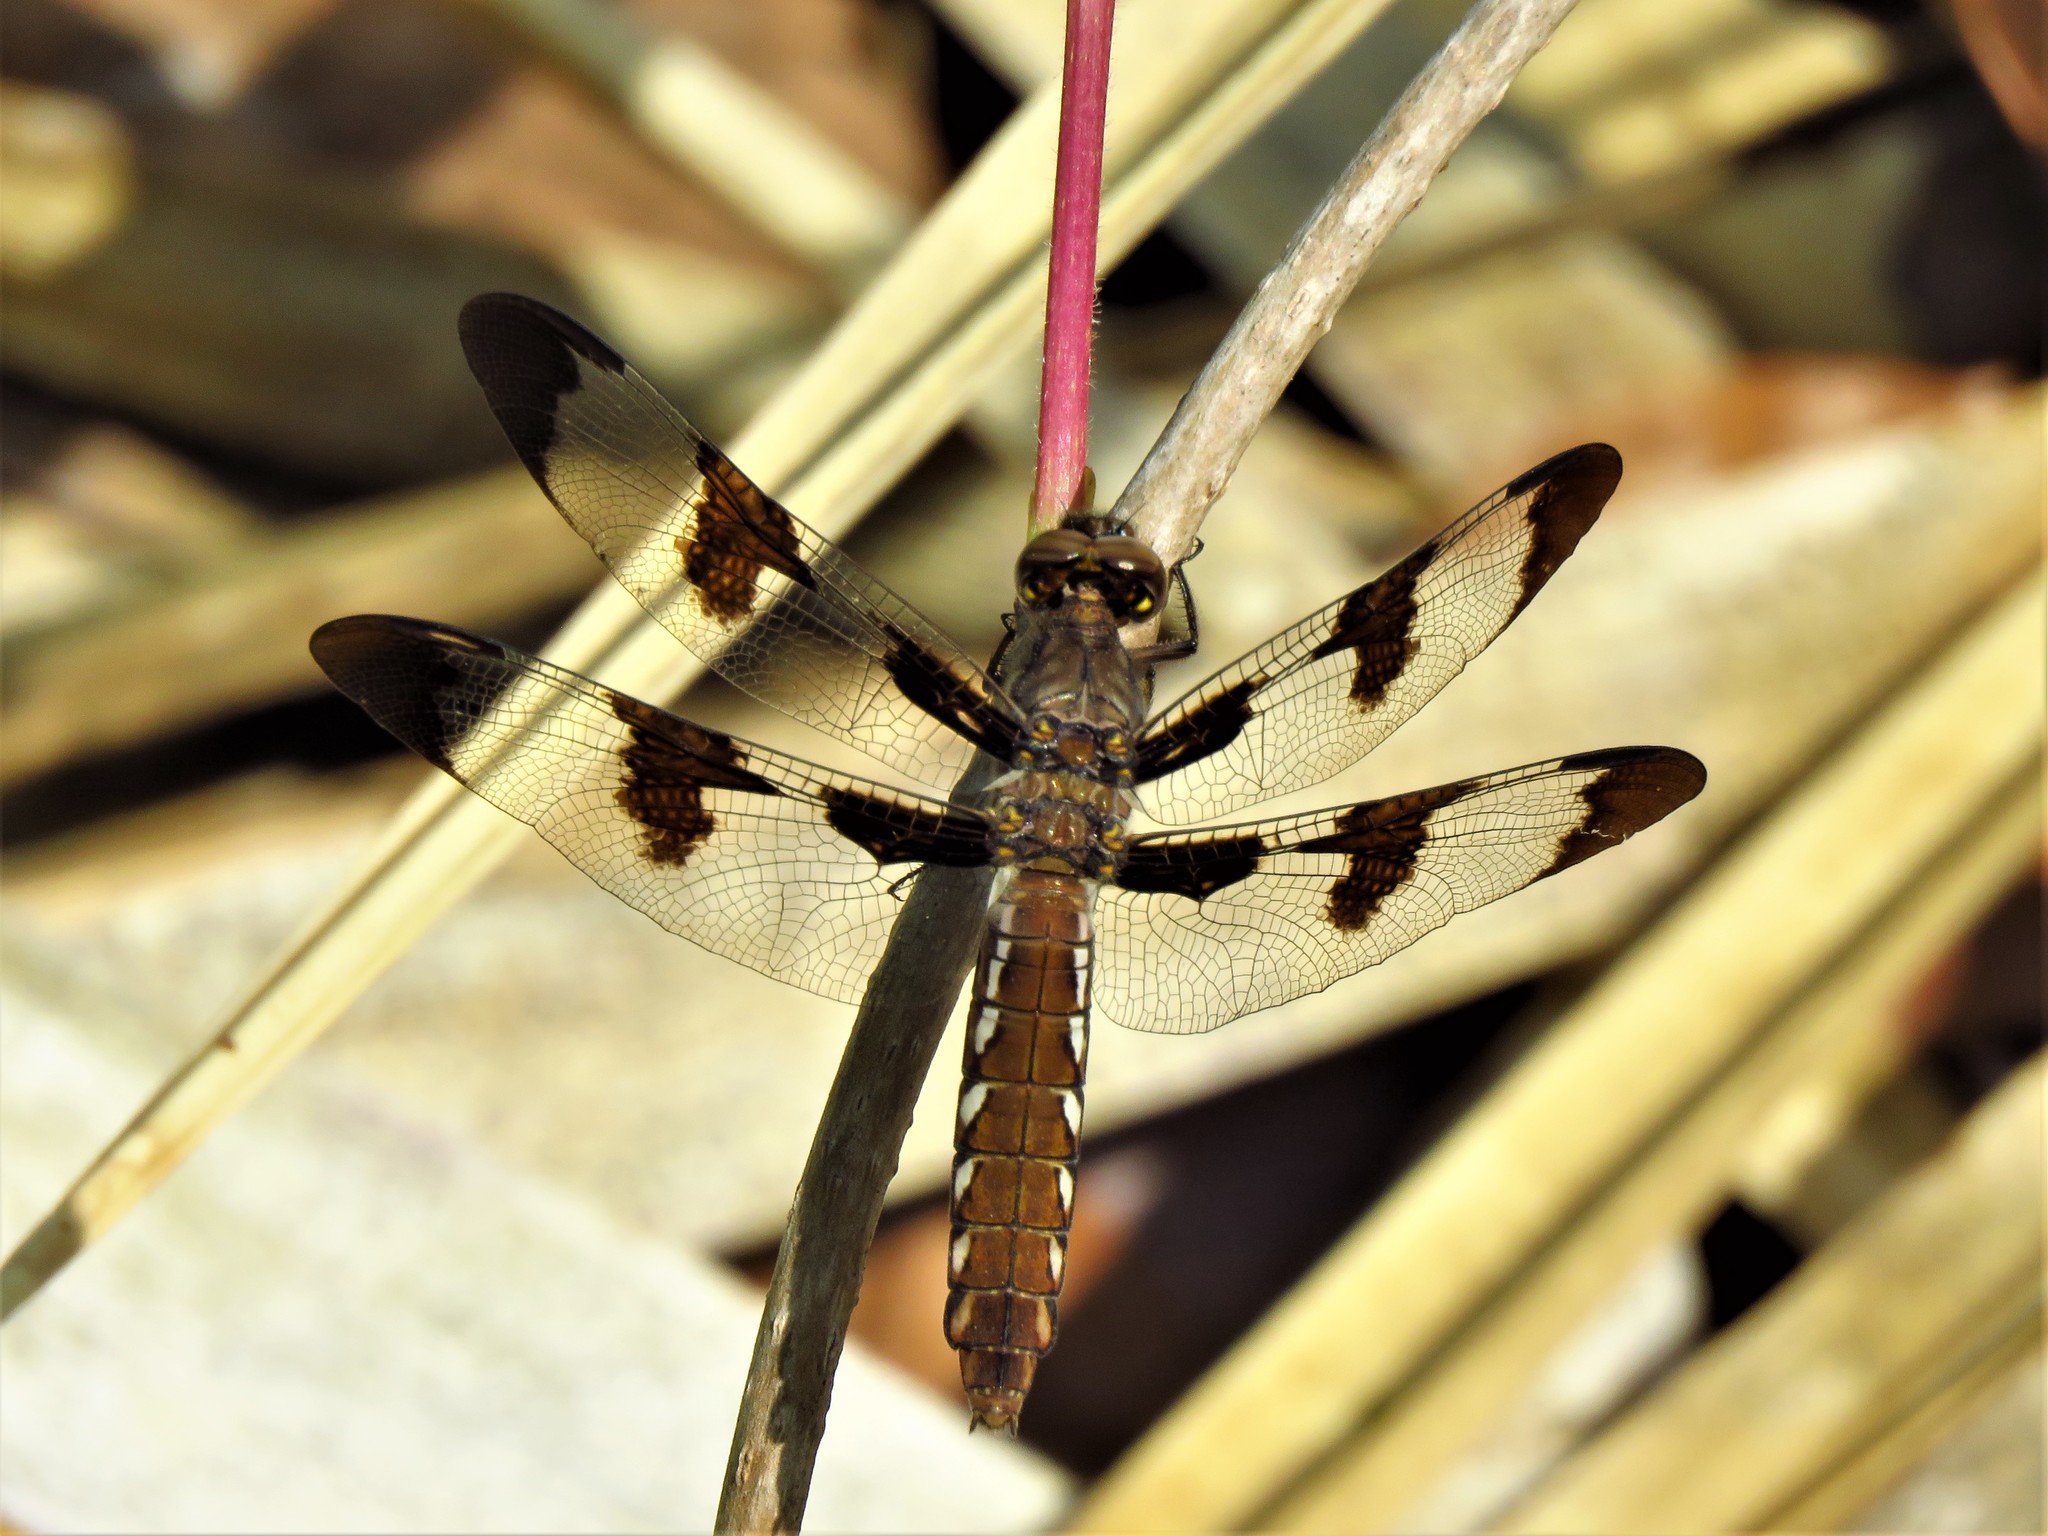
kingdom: Animalia
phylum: Arthropoda
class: Insecta
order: Odonata
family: Libellulidae
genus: Plathemis
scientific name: Plathemis lydia
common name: Common whitetail
